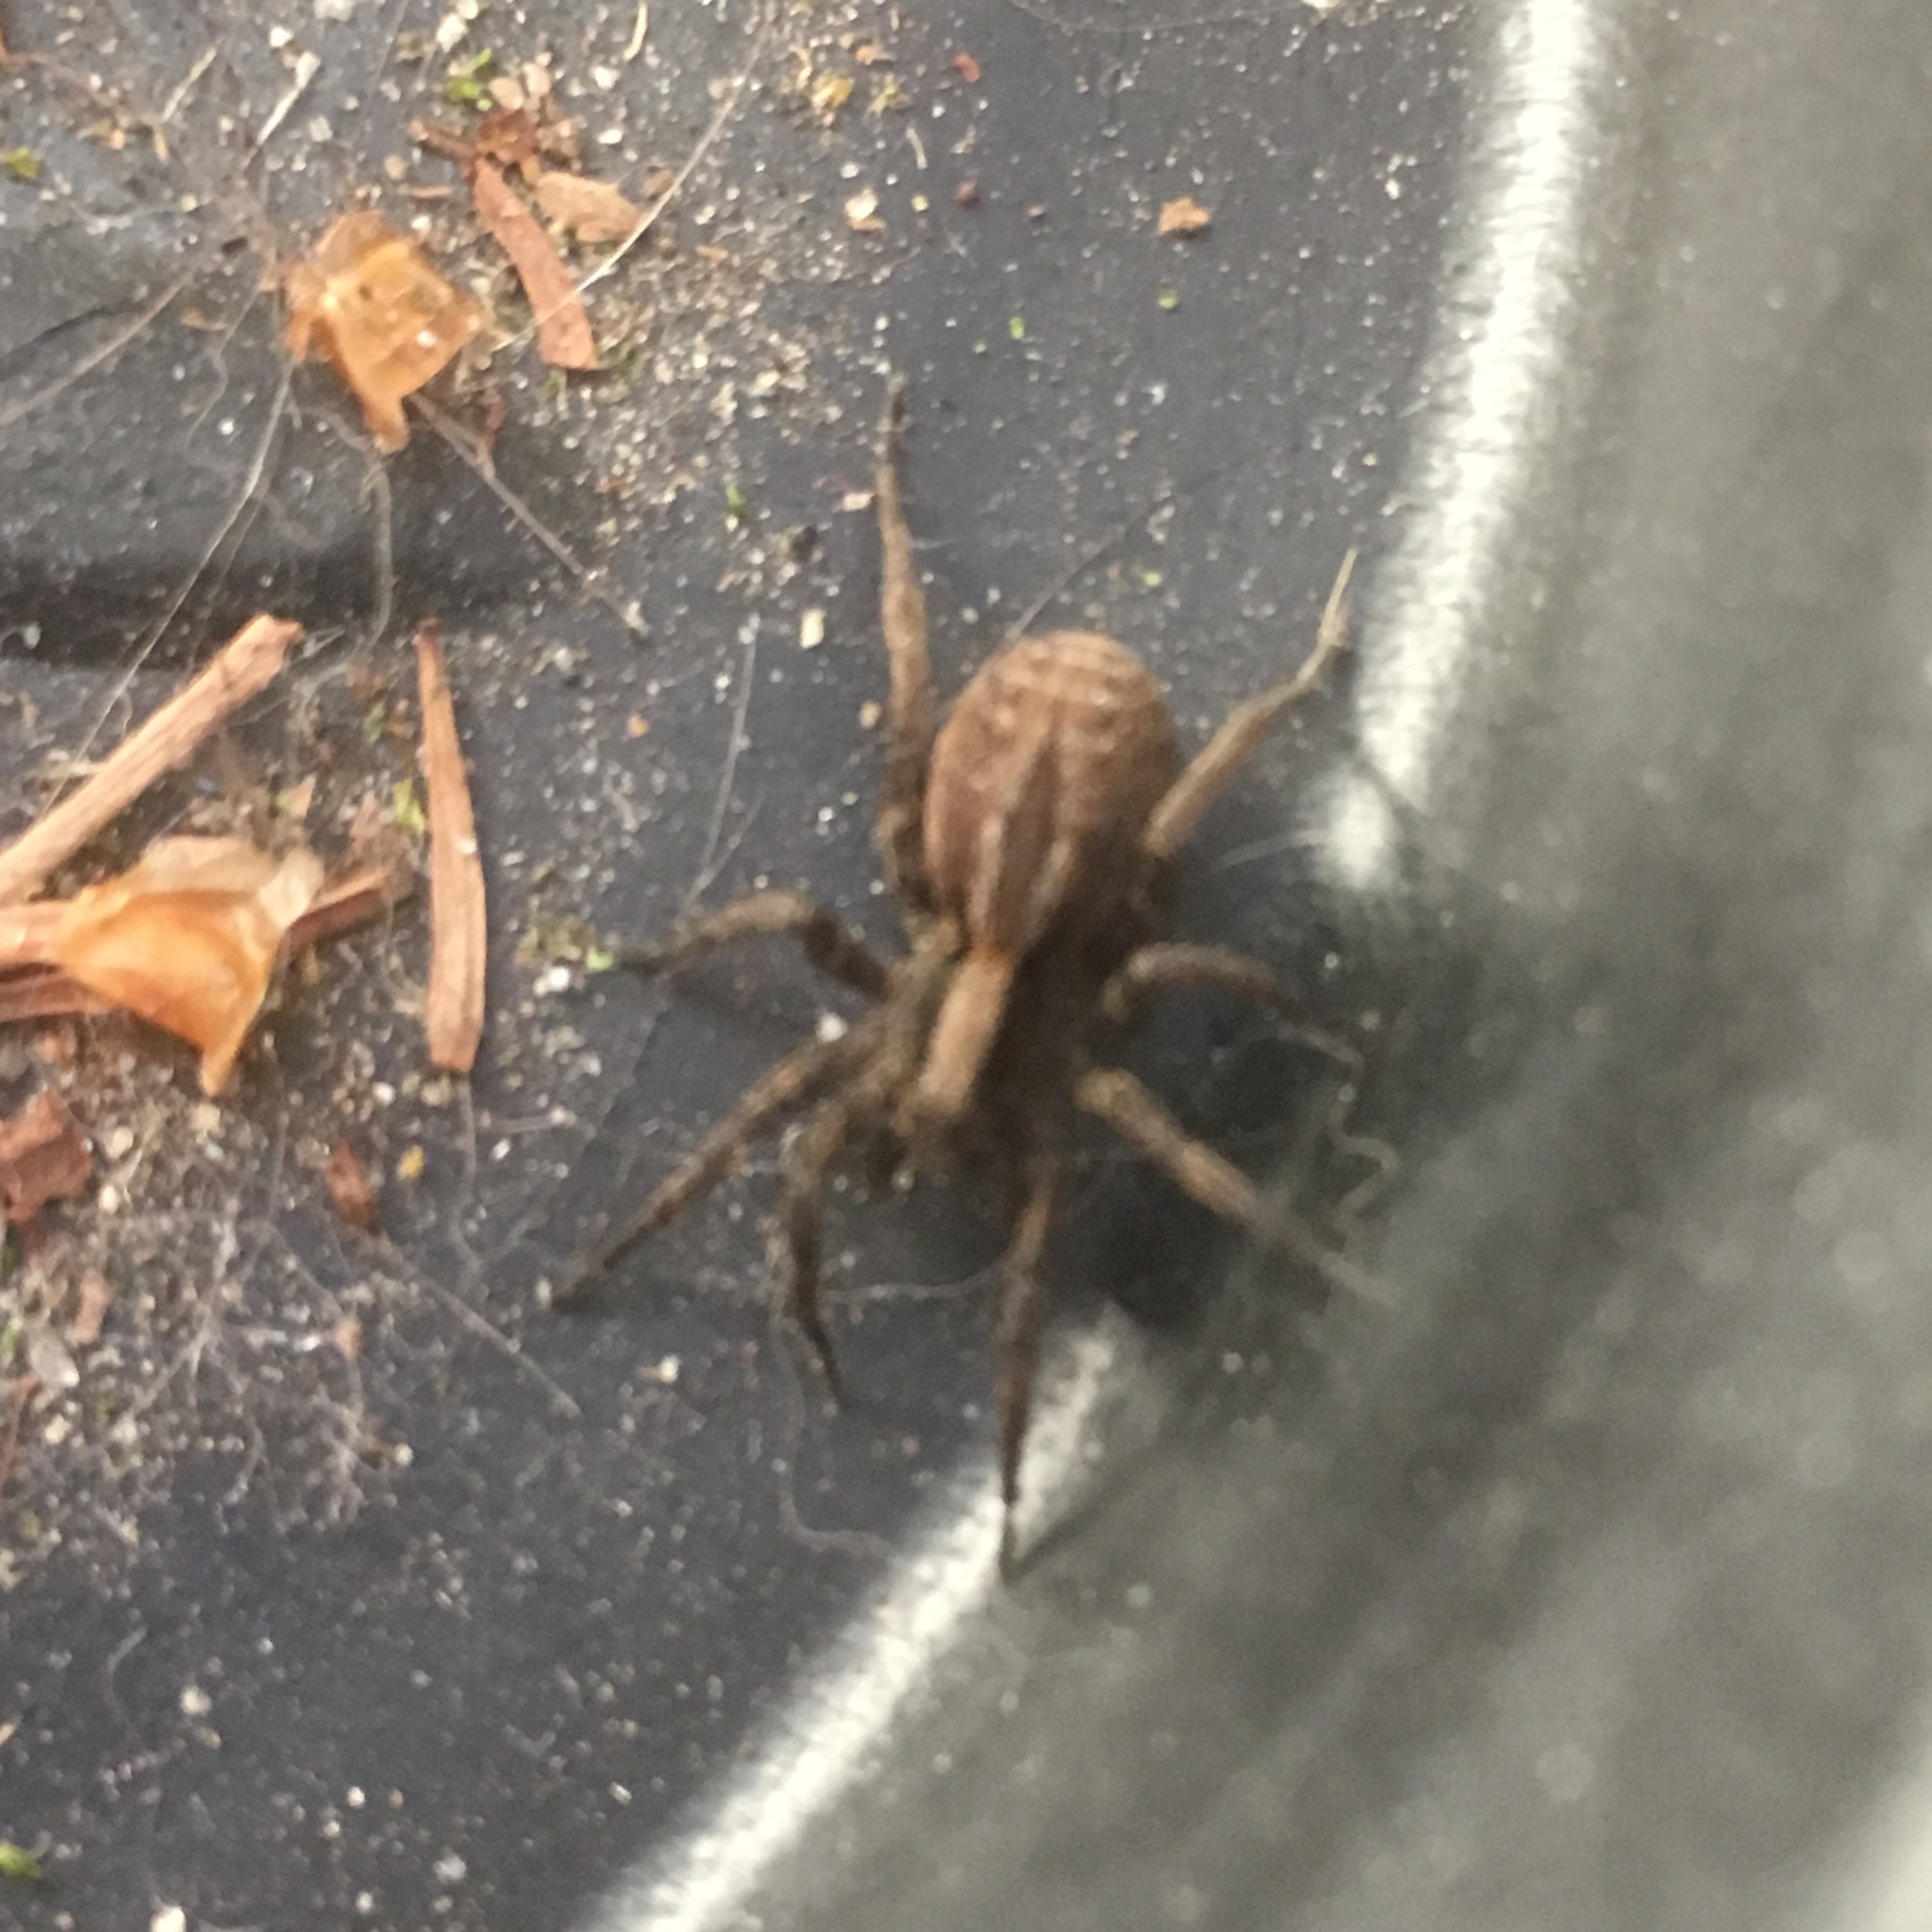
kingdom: Animalia
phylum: Arthropoda
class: Arachnida
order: Araneae
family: Lycosidae
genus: Alopecosa
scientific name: Alopecosa
